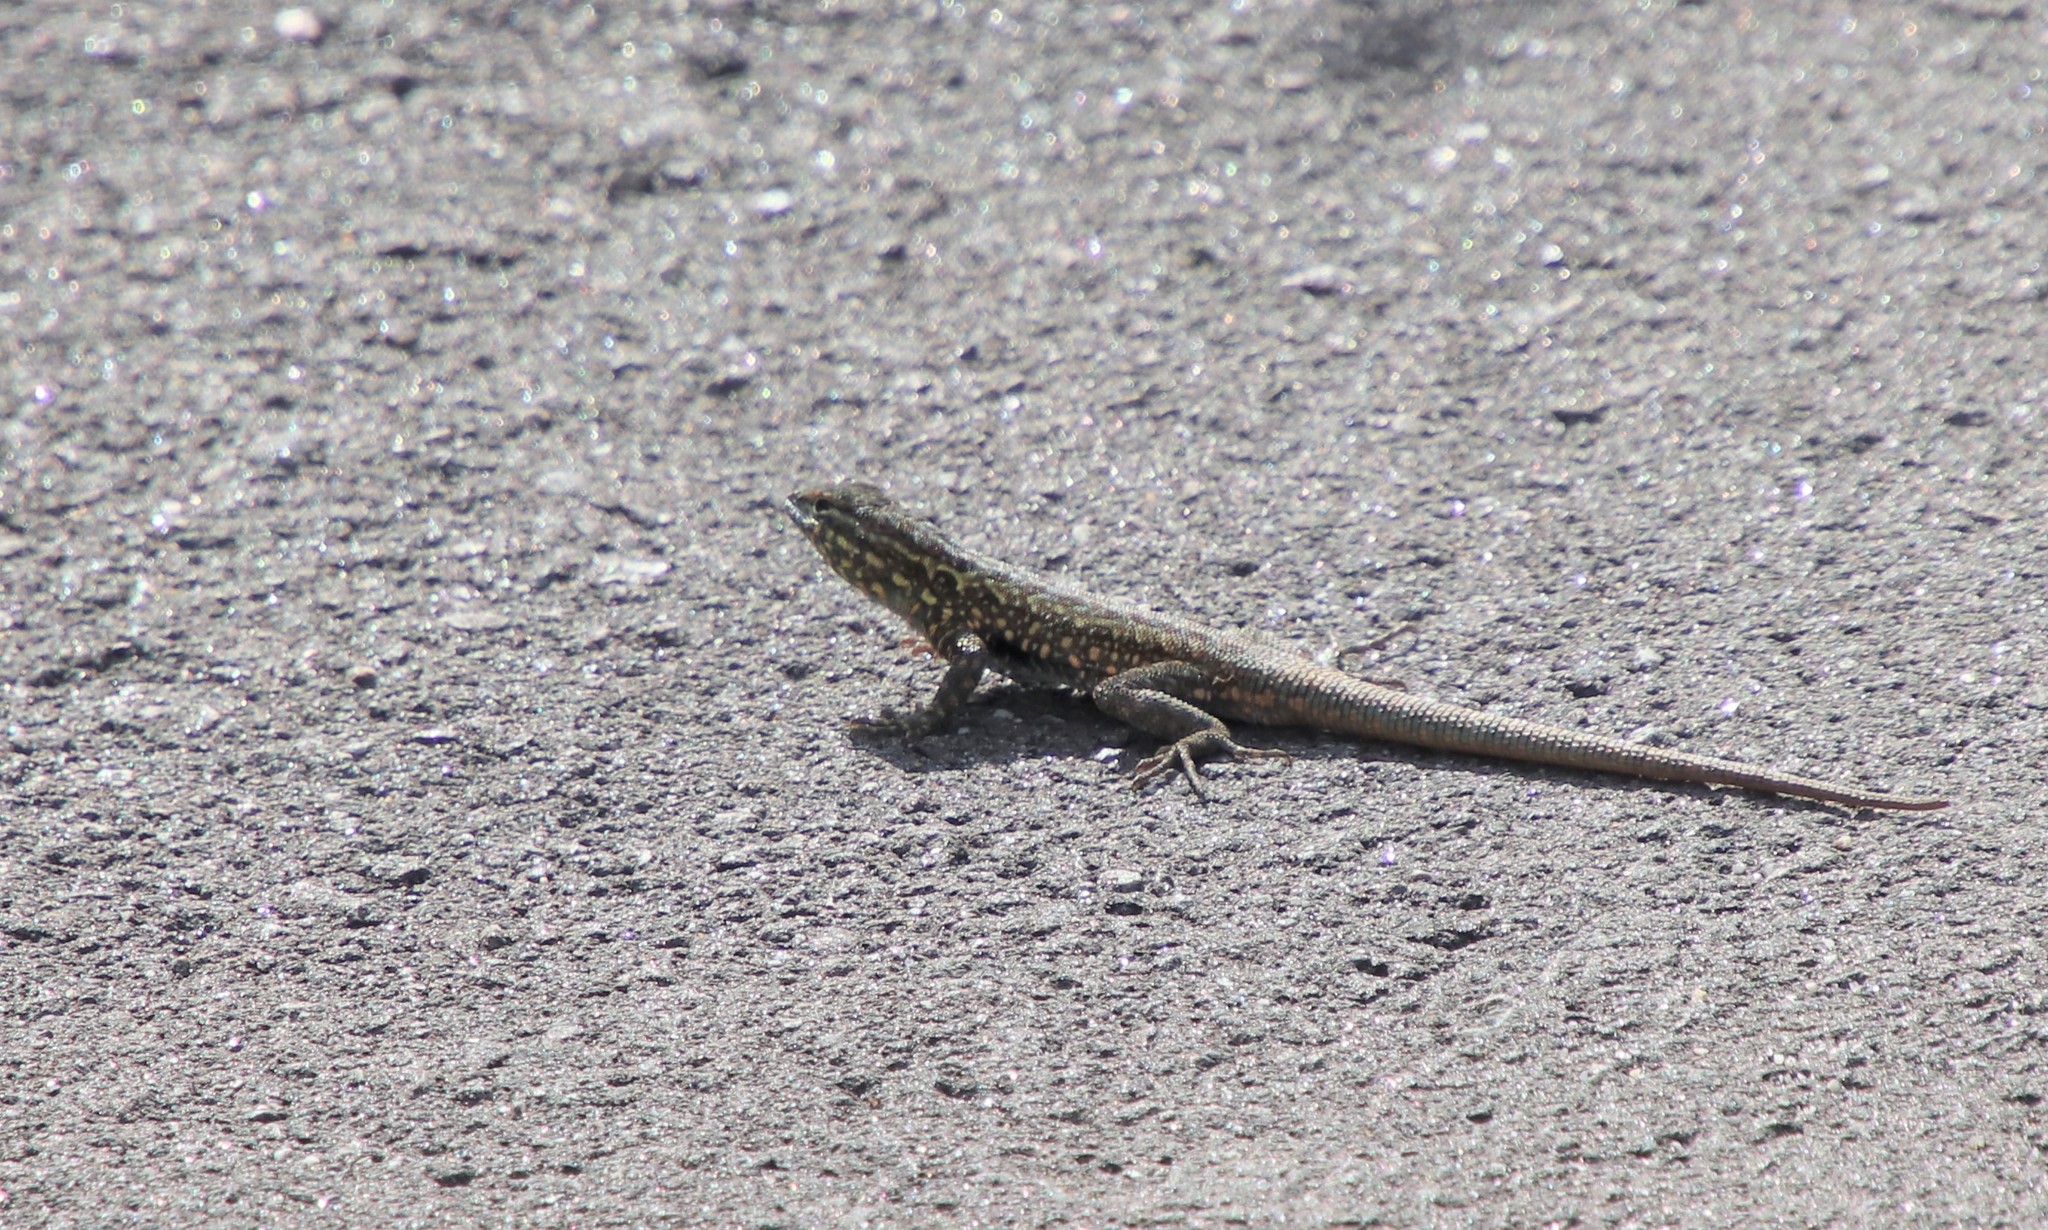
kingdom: Animalia
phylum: Chordata
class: Squamata
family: Phrynosomatidae
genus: Uta
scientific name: Uta stansburiana
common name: Side-blotched lizard
